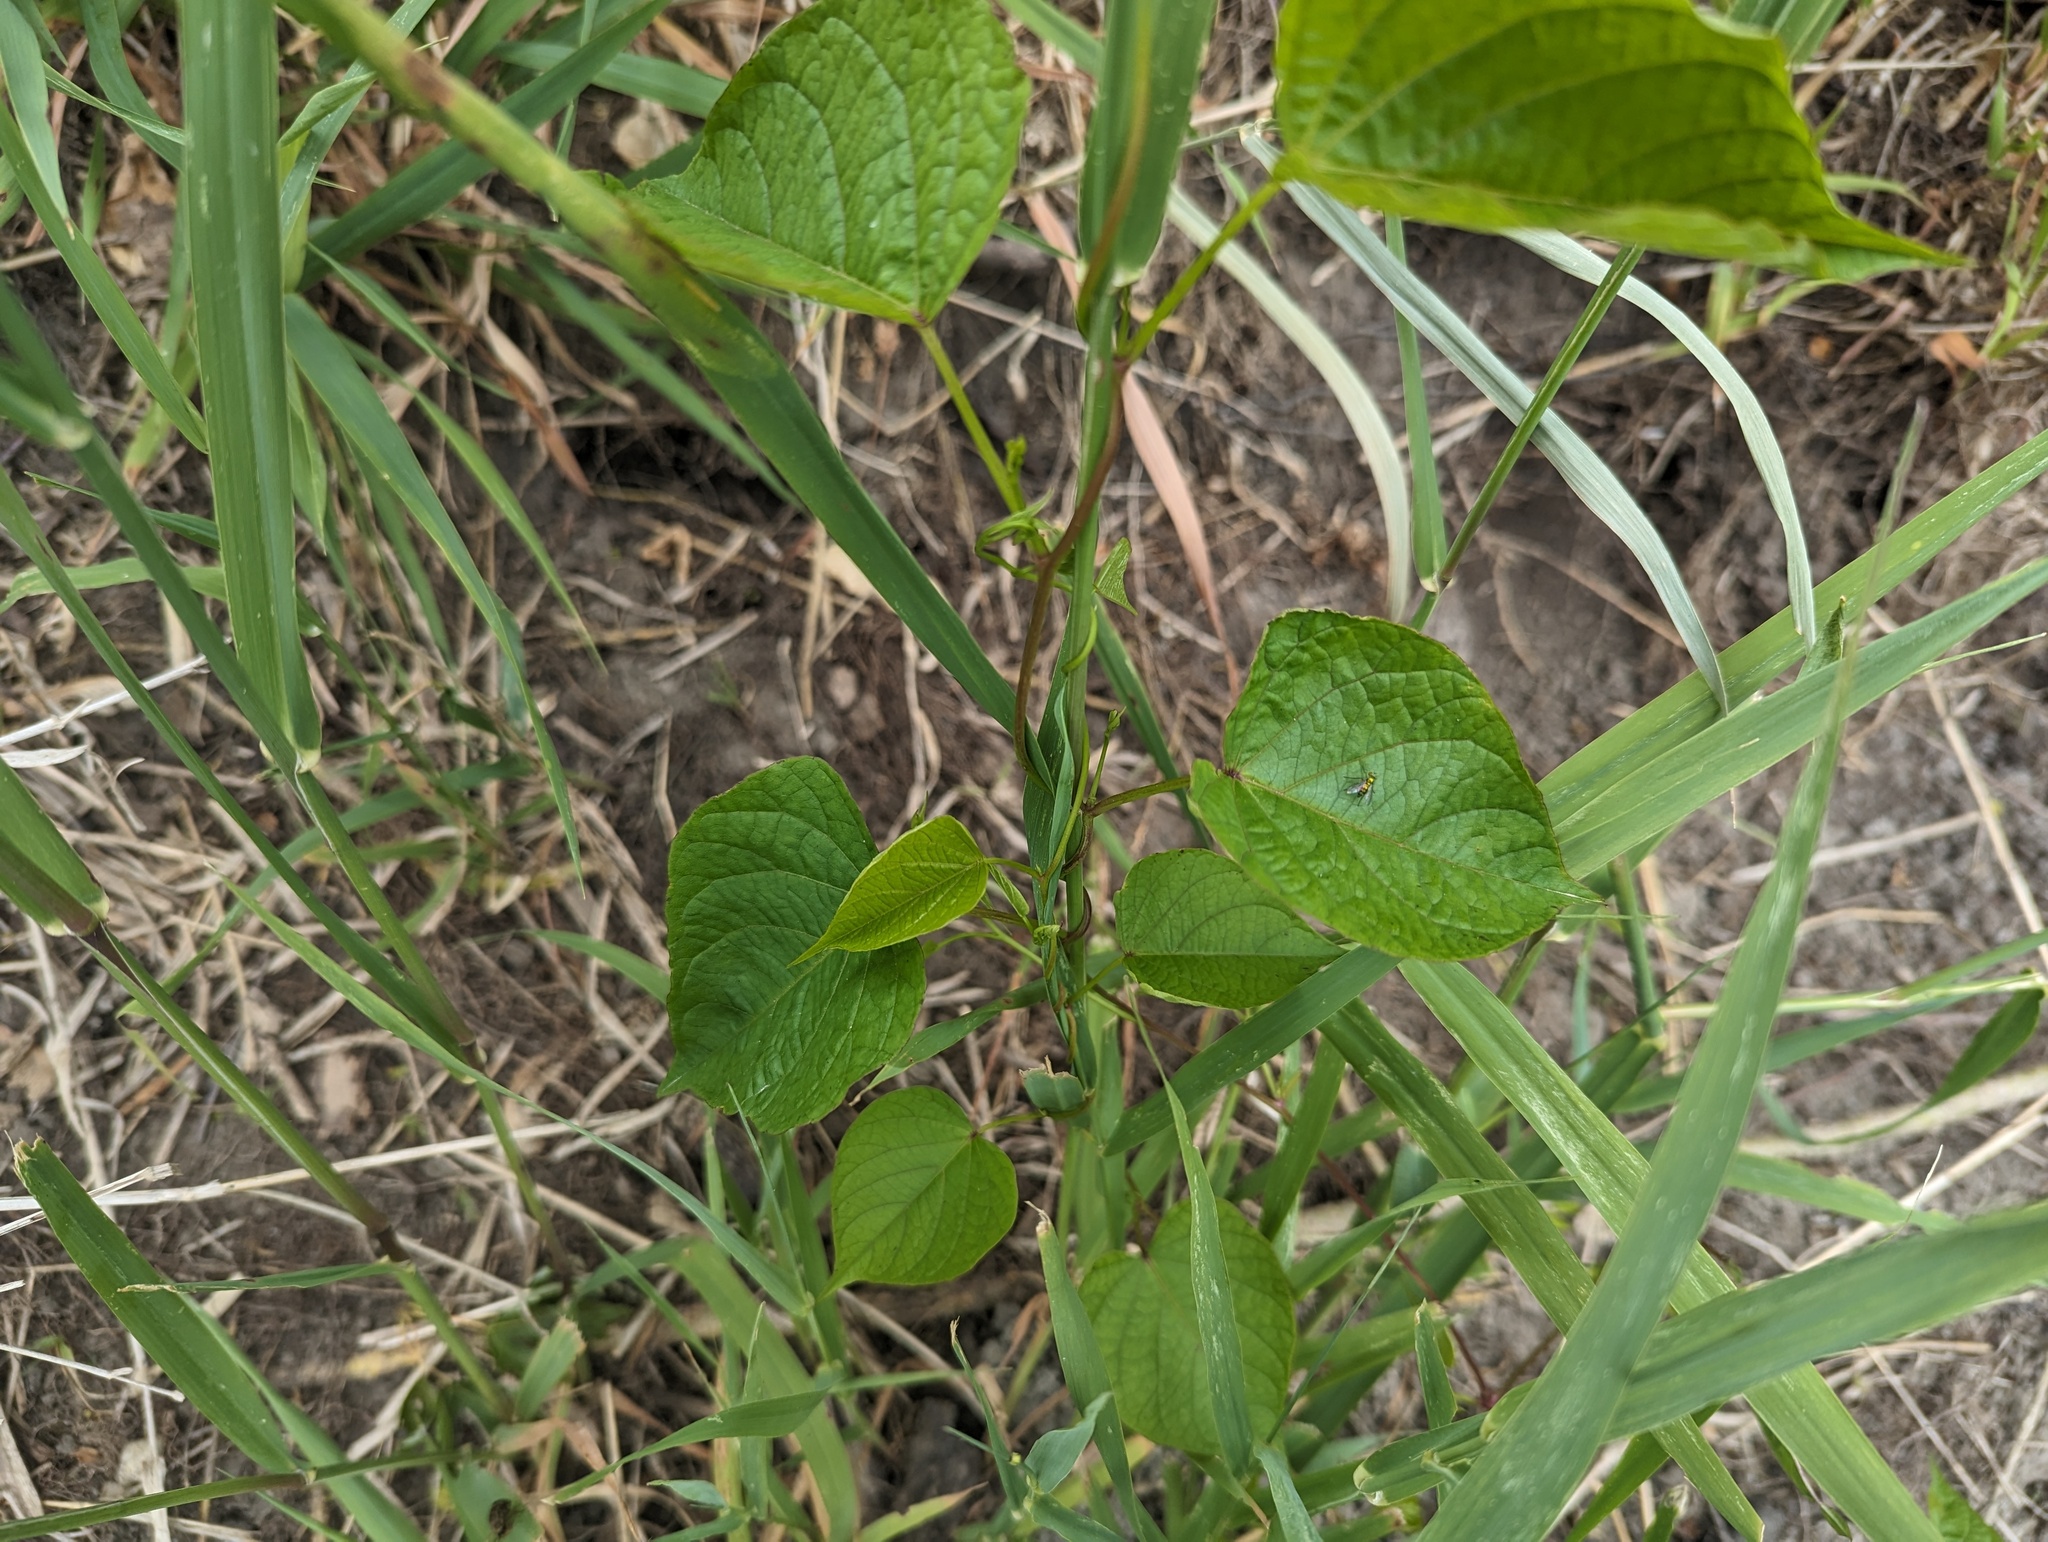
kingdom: Plantae
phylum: Tracheophyta
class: Magnoliopsida
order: Solanales
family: Convolvulaceae
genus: Ipomoea
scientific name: Ipomoea pandurata
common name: Man-of-the-earth
